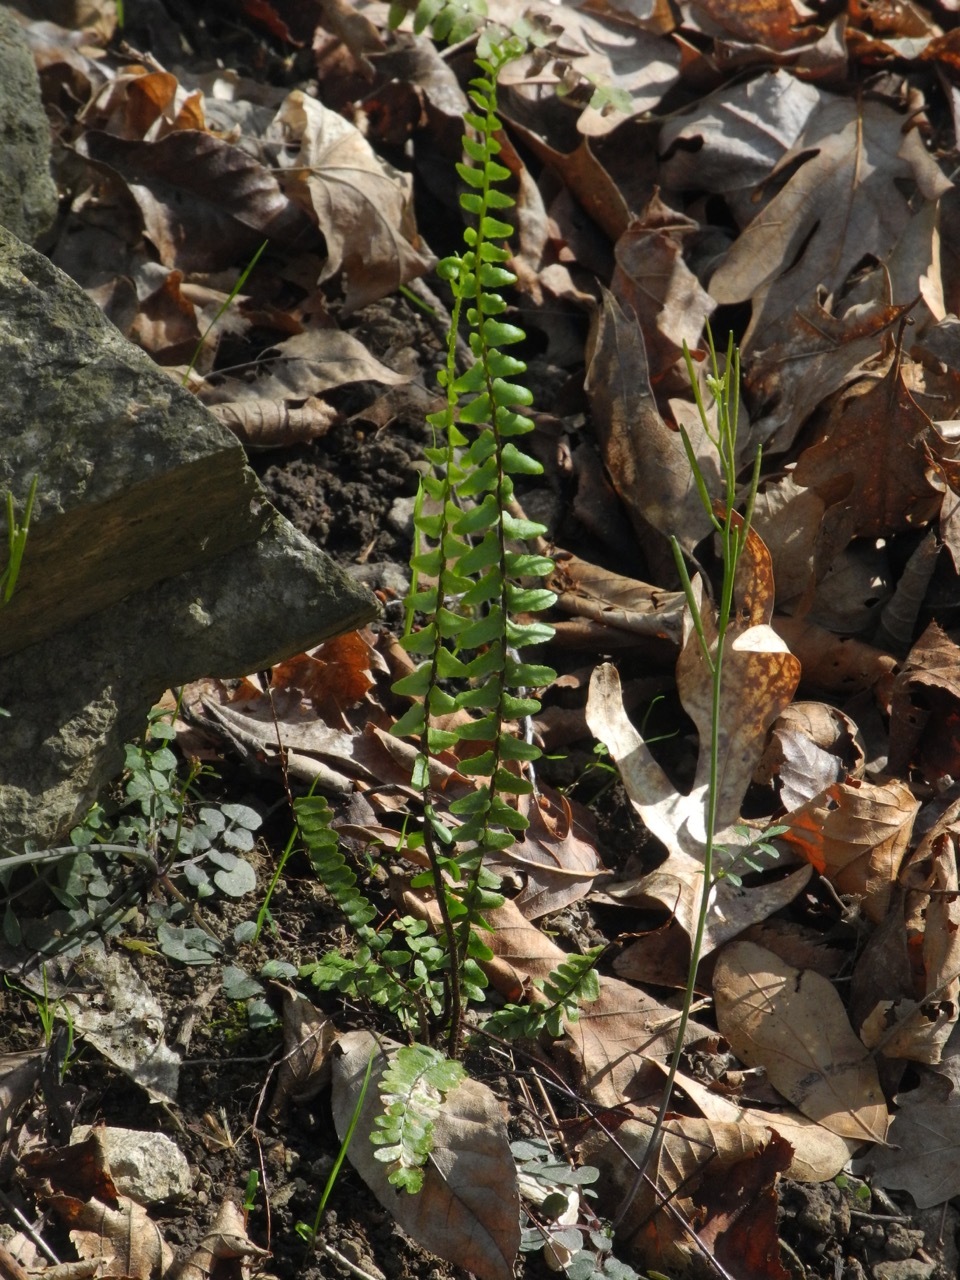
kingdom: Plantae
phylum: Tracheophyta
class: Polypodiopsida
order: Polypodiales
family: Aspleniaceae
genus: Asplenium
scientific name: Asplenium platyneuron
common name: Ebony spleenwort
